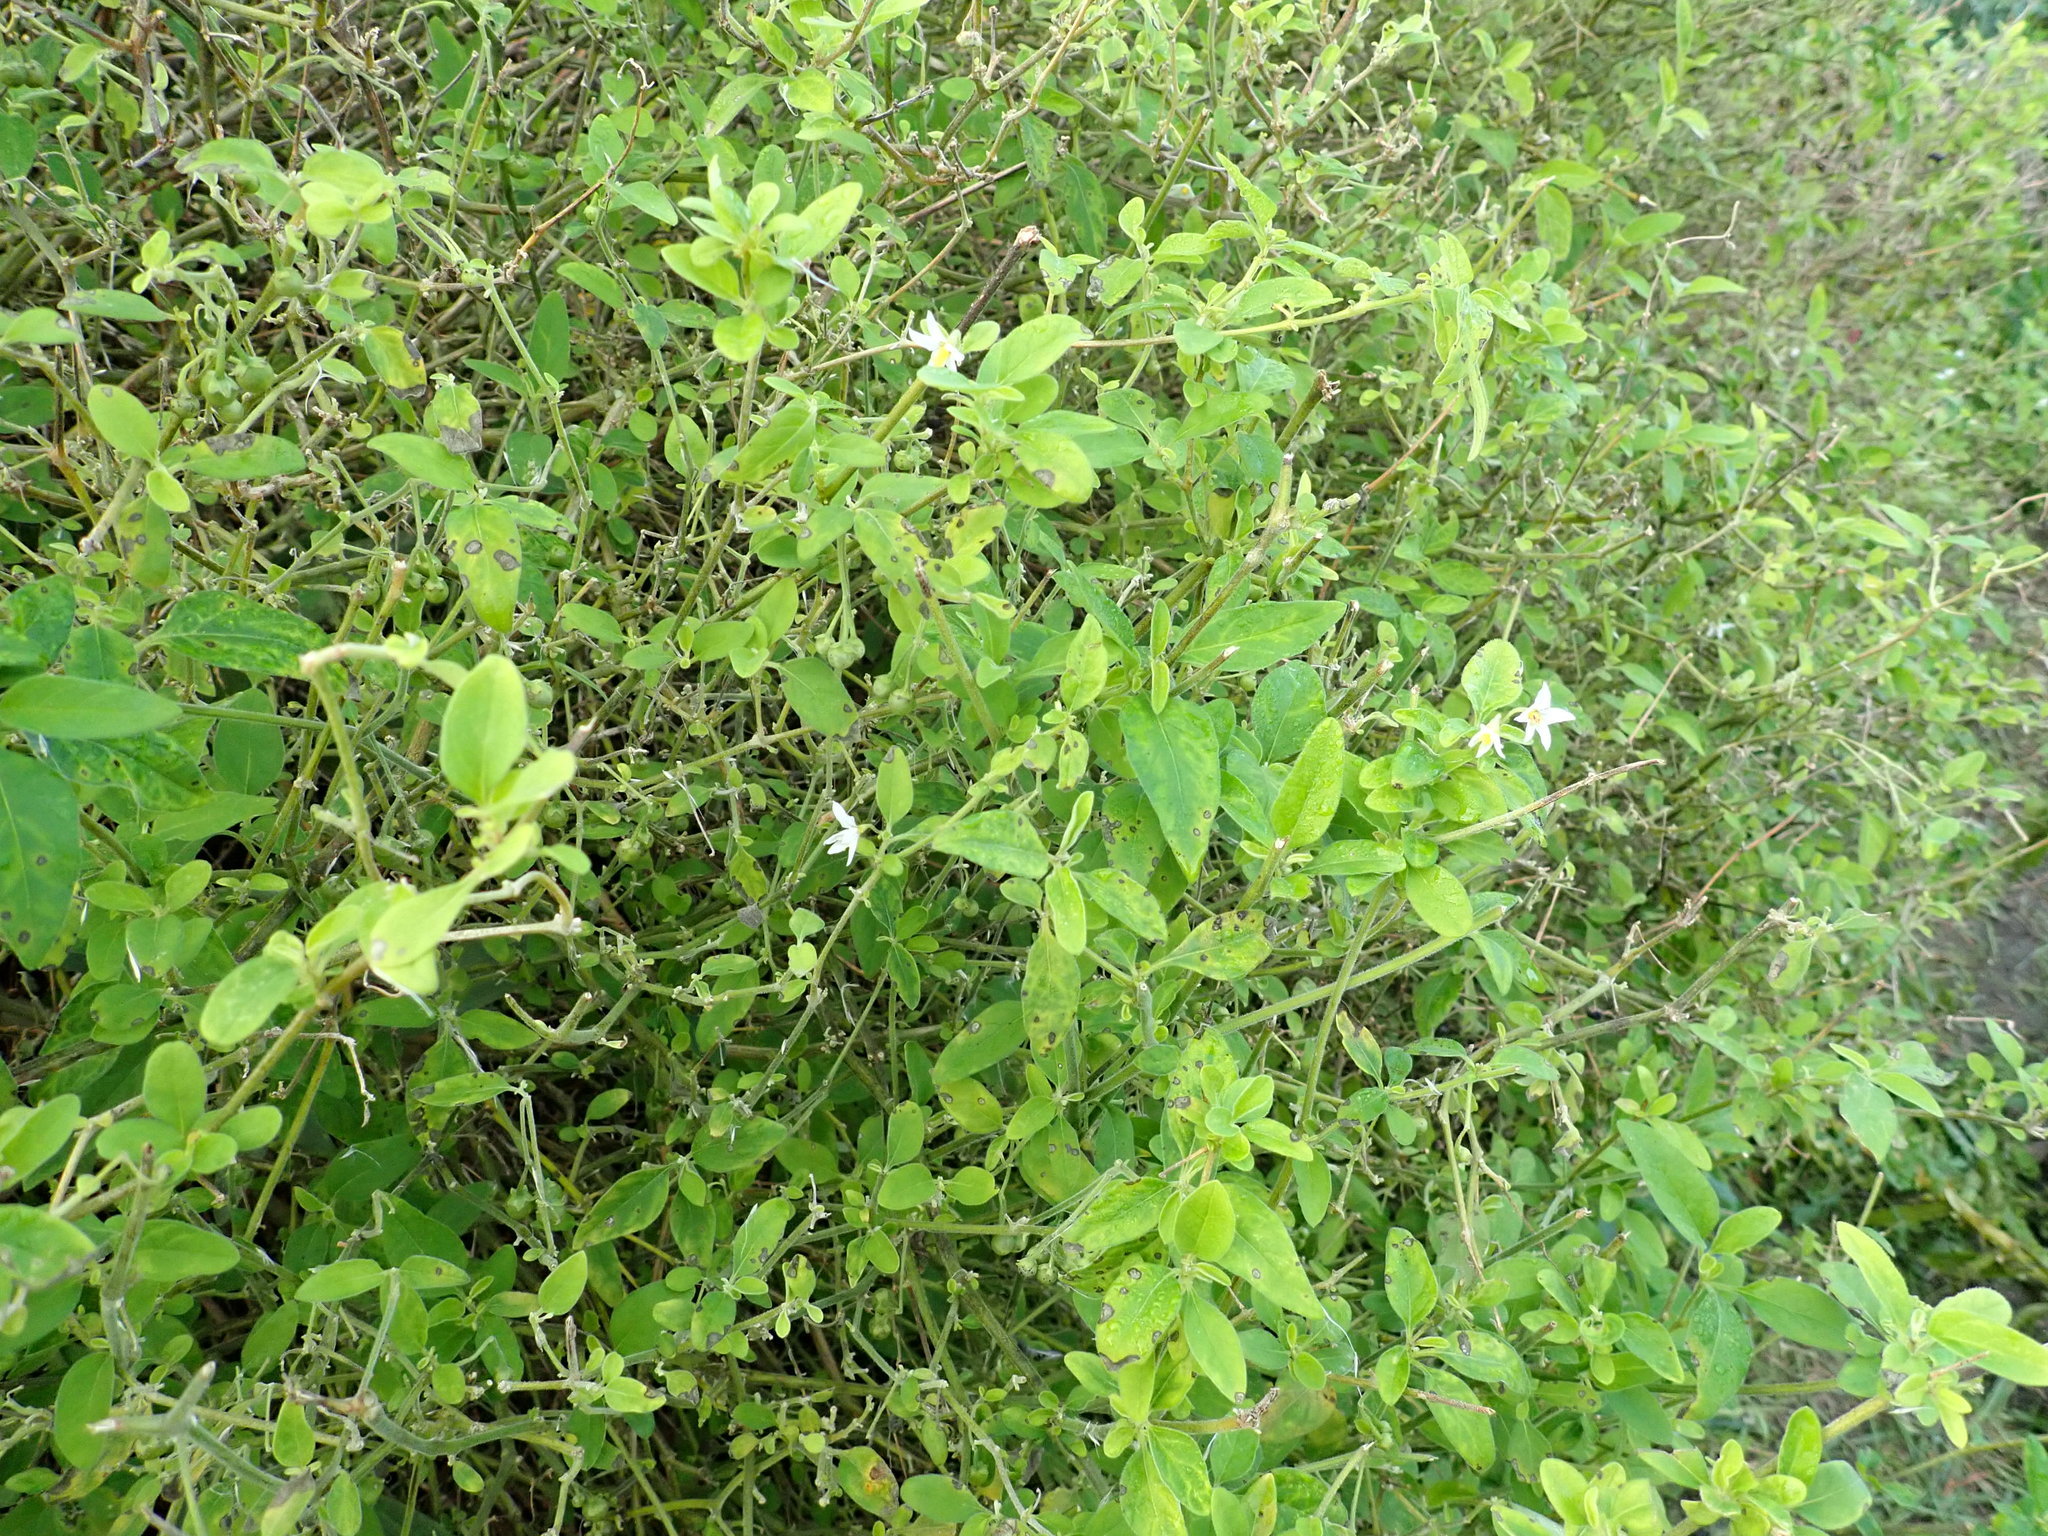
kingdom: Plantae
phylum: Tracheophyta
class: Magnoliopsida
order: Solanales
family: Solanaceae
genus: Solanum
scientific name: Solanum chenopodioides
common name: Tall nightshade
